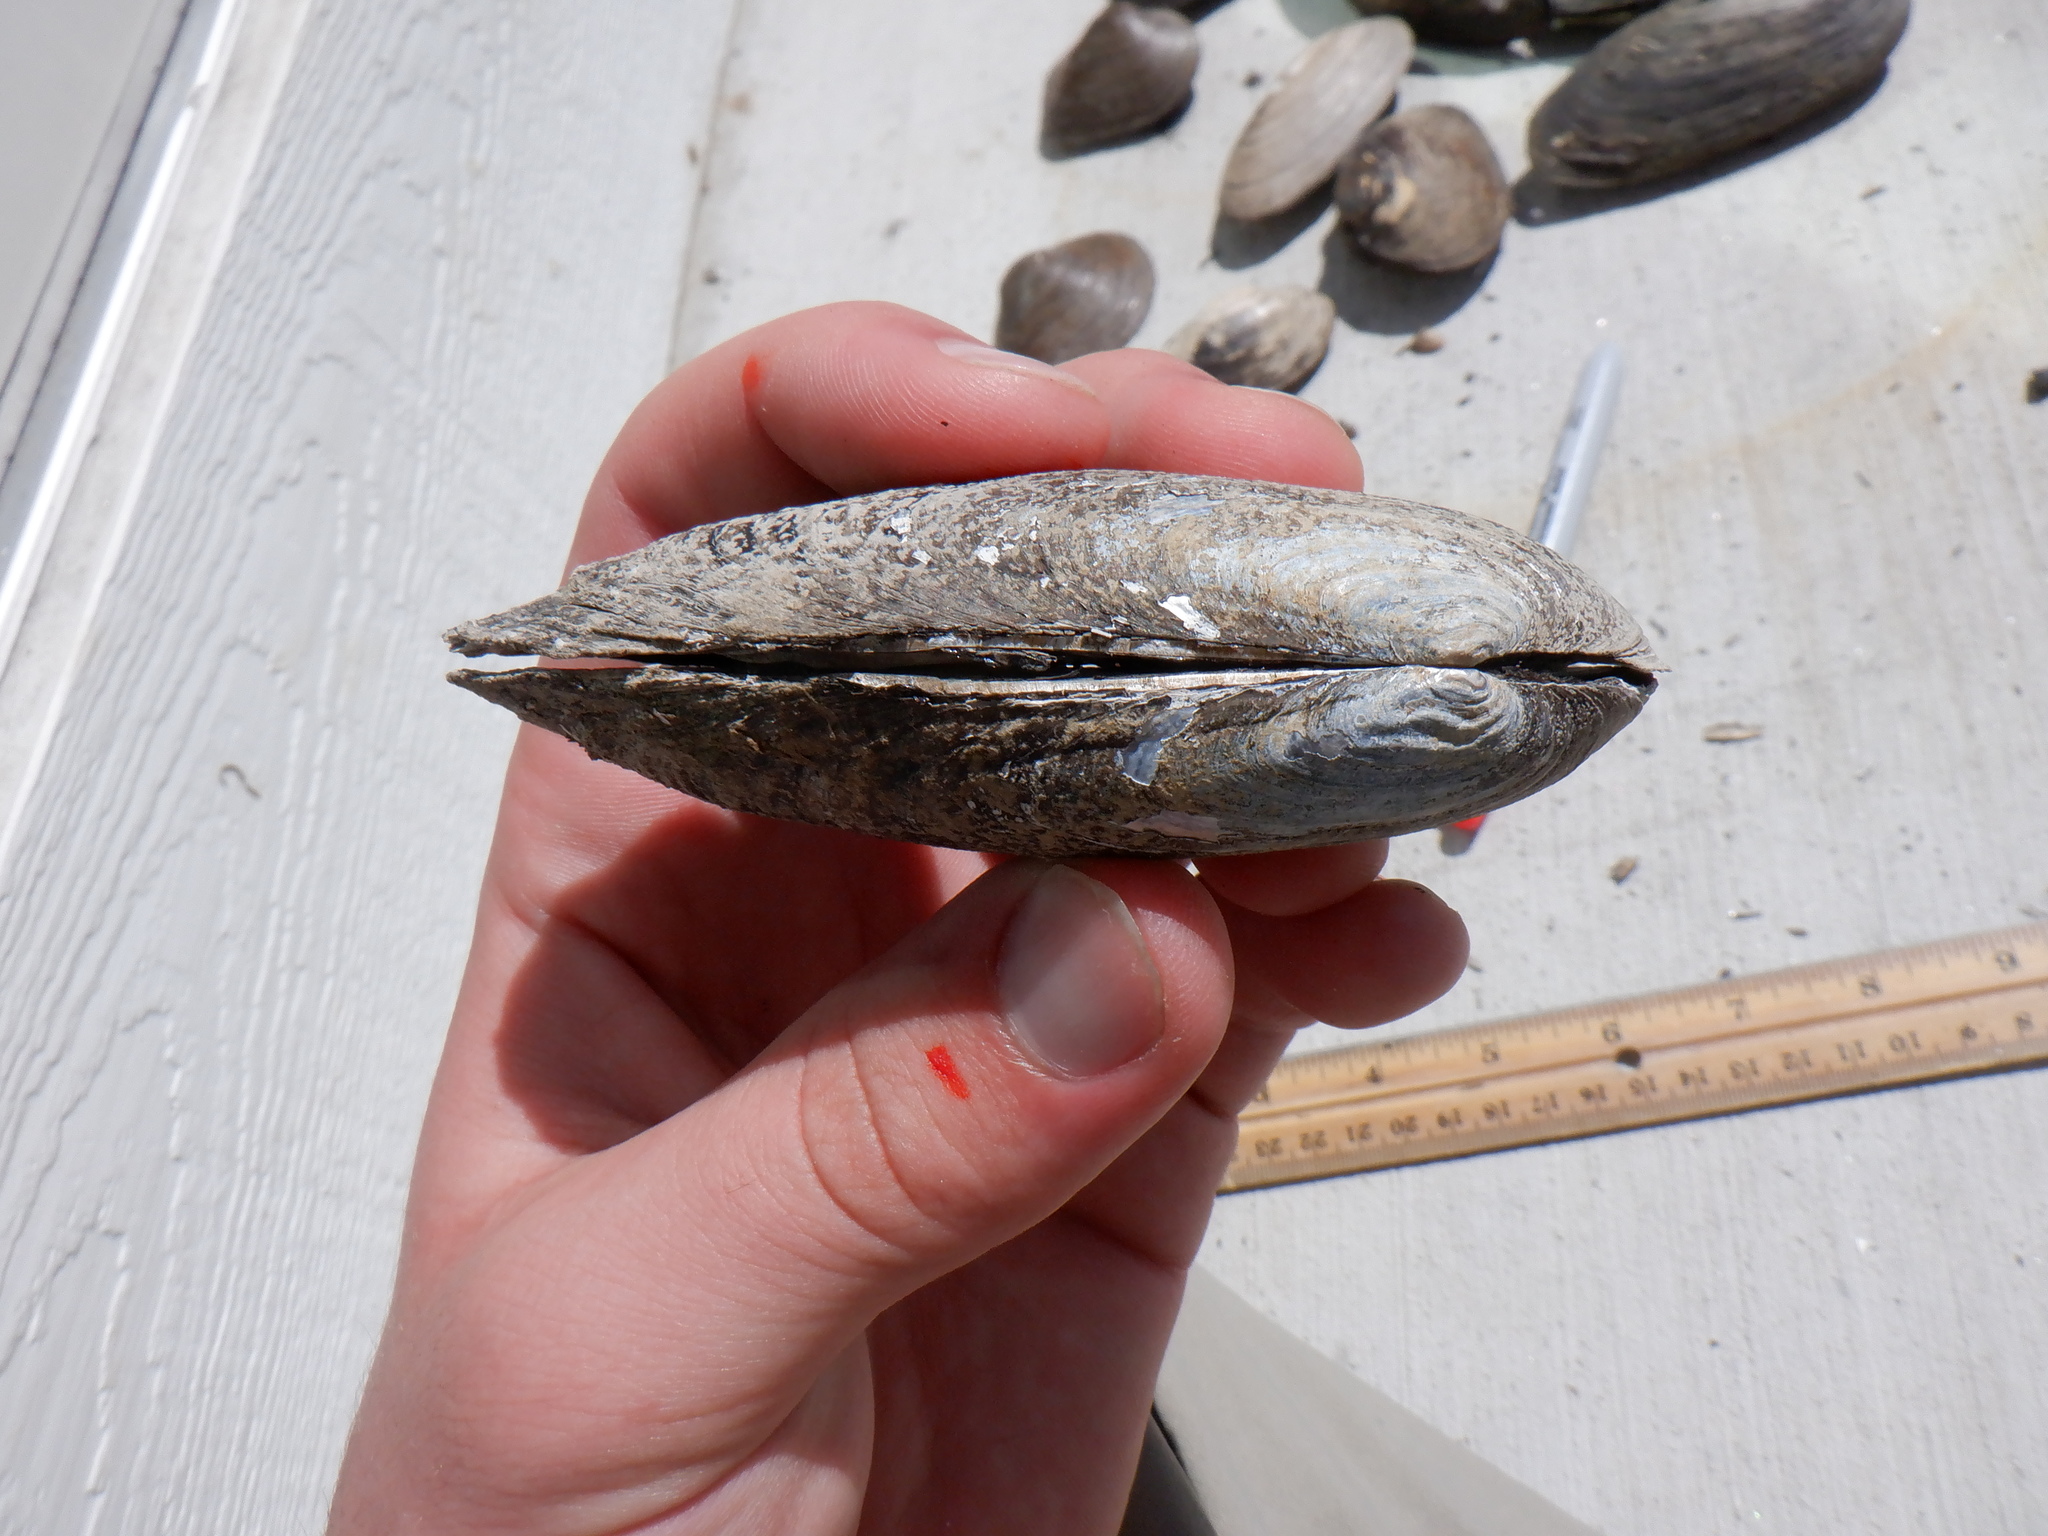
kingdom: Animalia
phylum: Mollusca
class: Bivalvia
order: Unionida
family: Unionidae
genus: Eurynia
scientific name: Eurynia dilatata
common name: Spike
